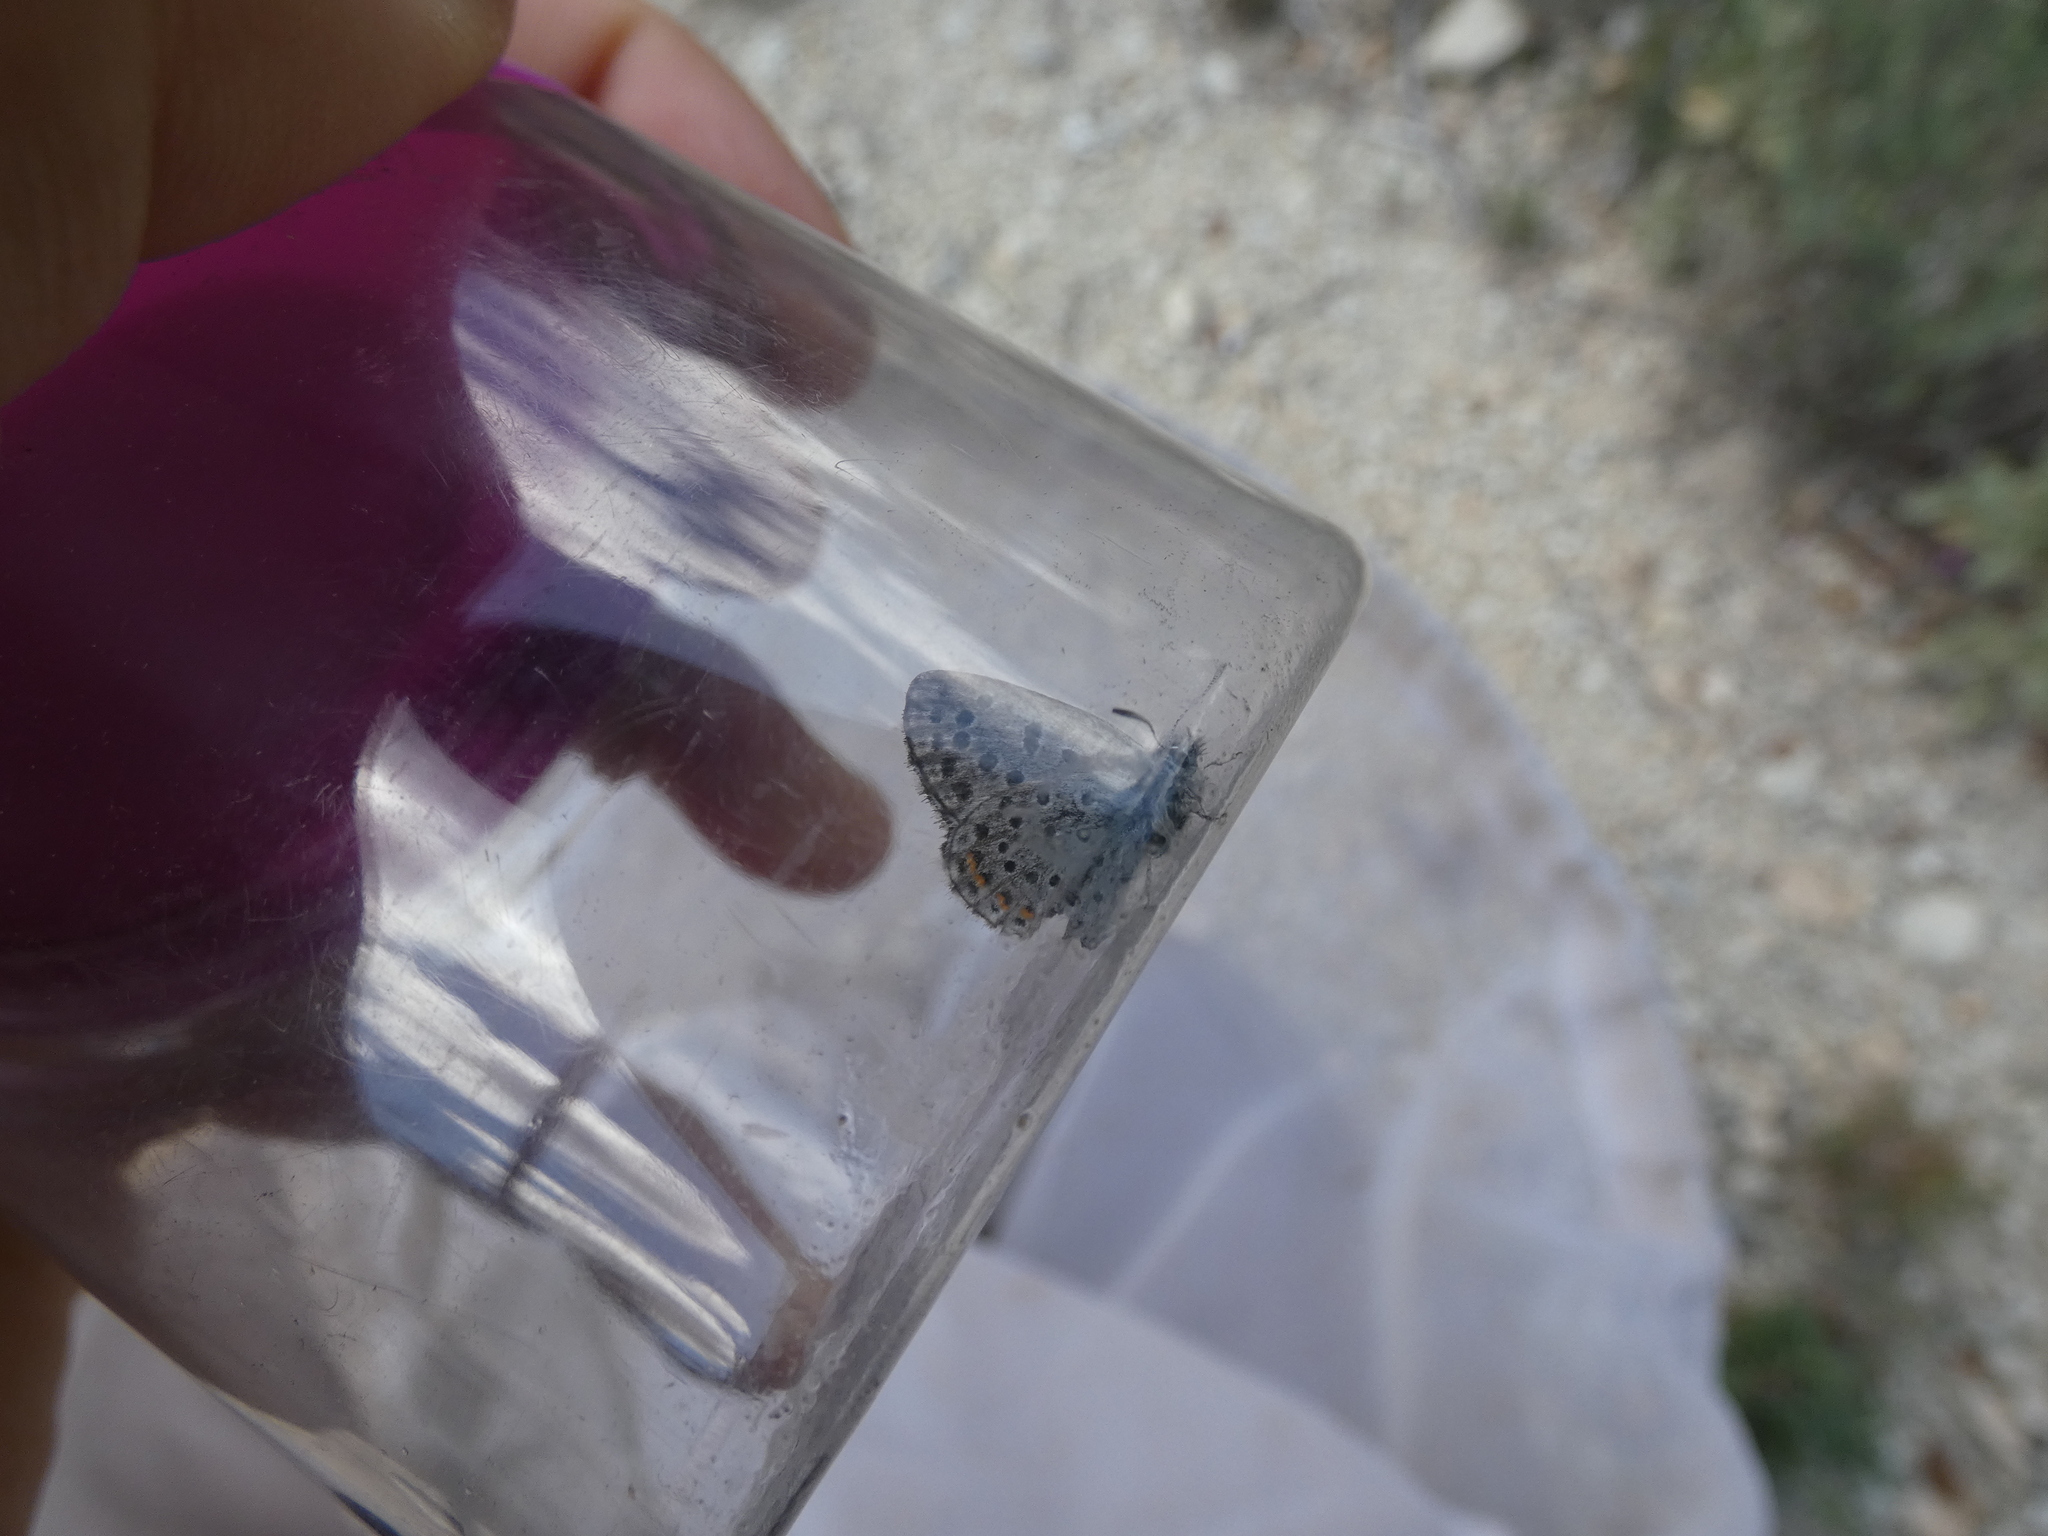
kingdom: Animalia
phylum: Arthropoda
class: Insecta
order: Lepidoptera
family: Lycaenidae
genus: Pseudophilotes
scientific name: Pseudophilotes baton
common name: Baton blue
